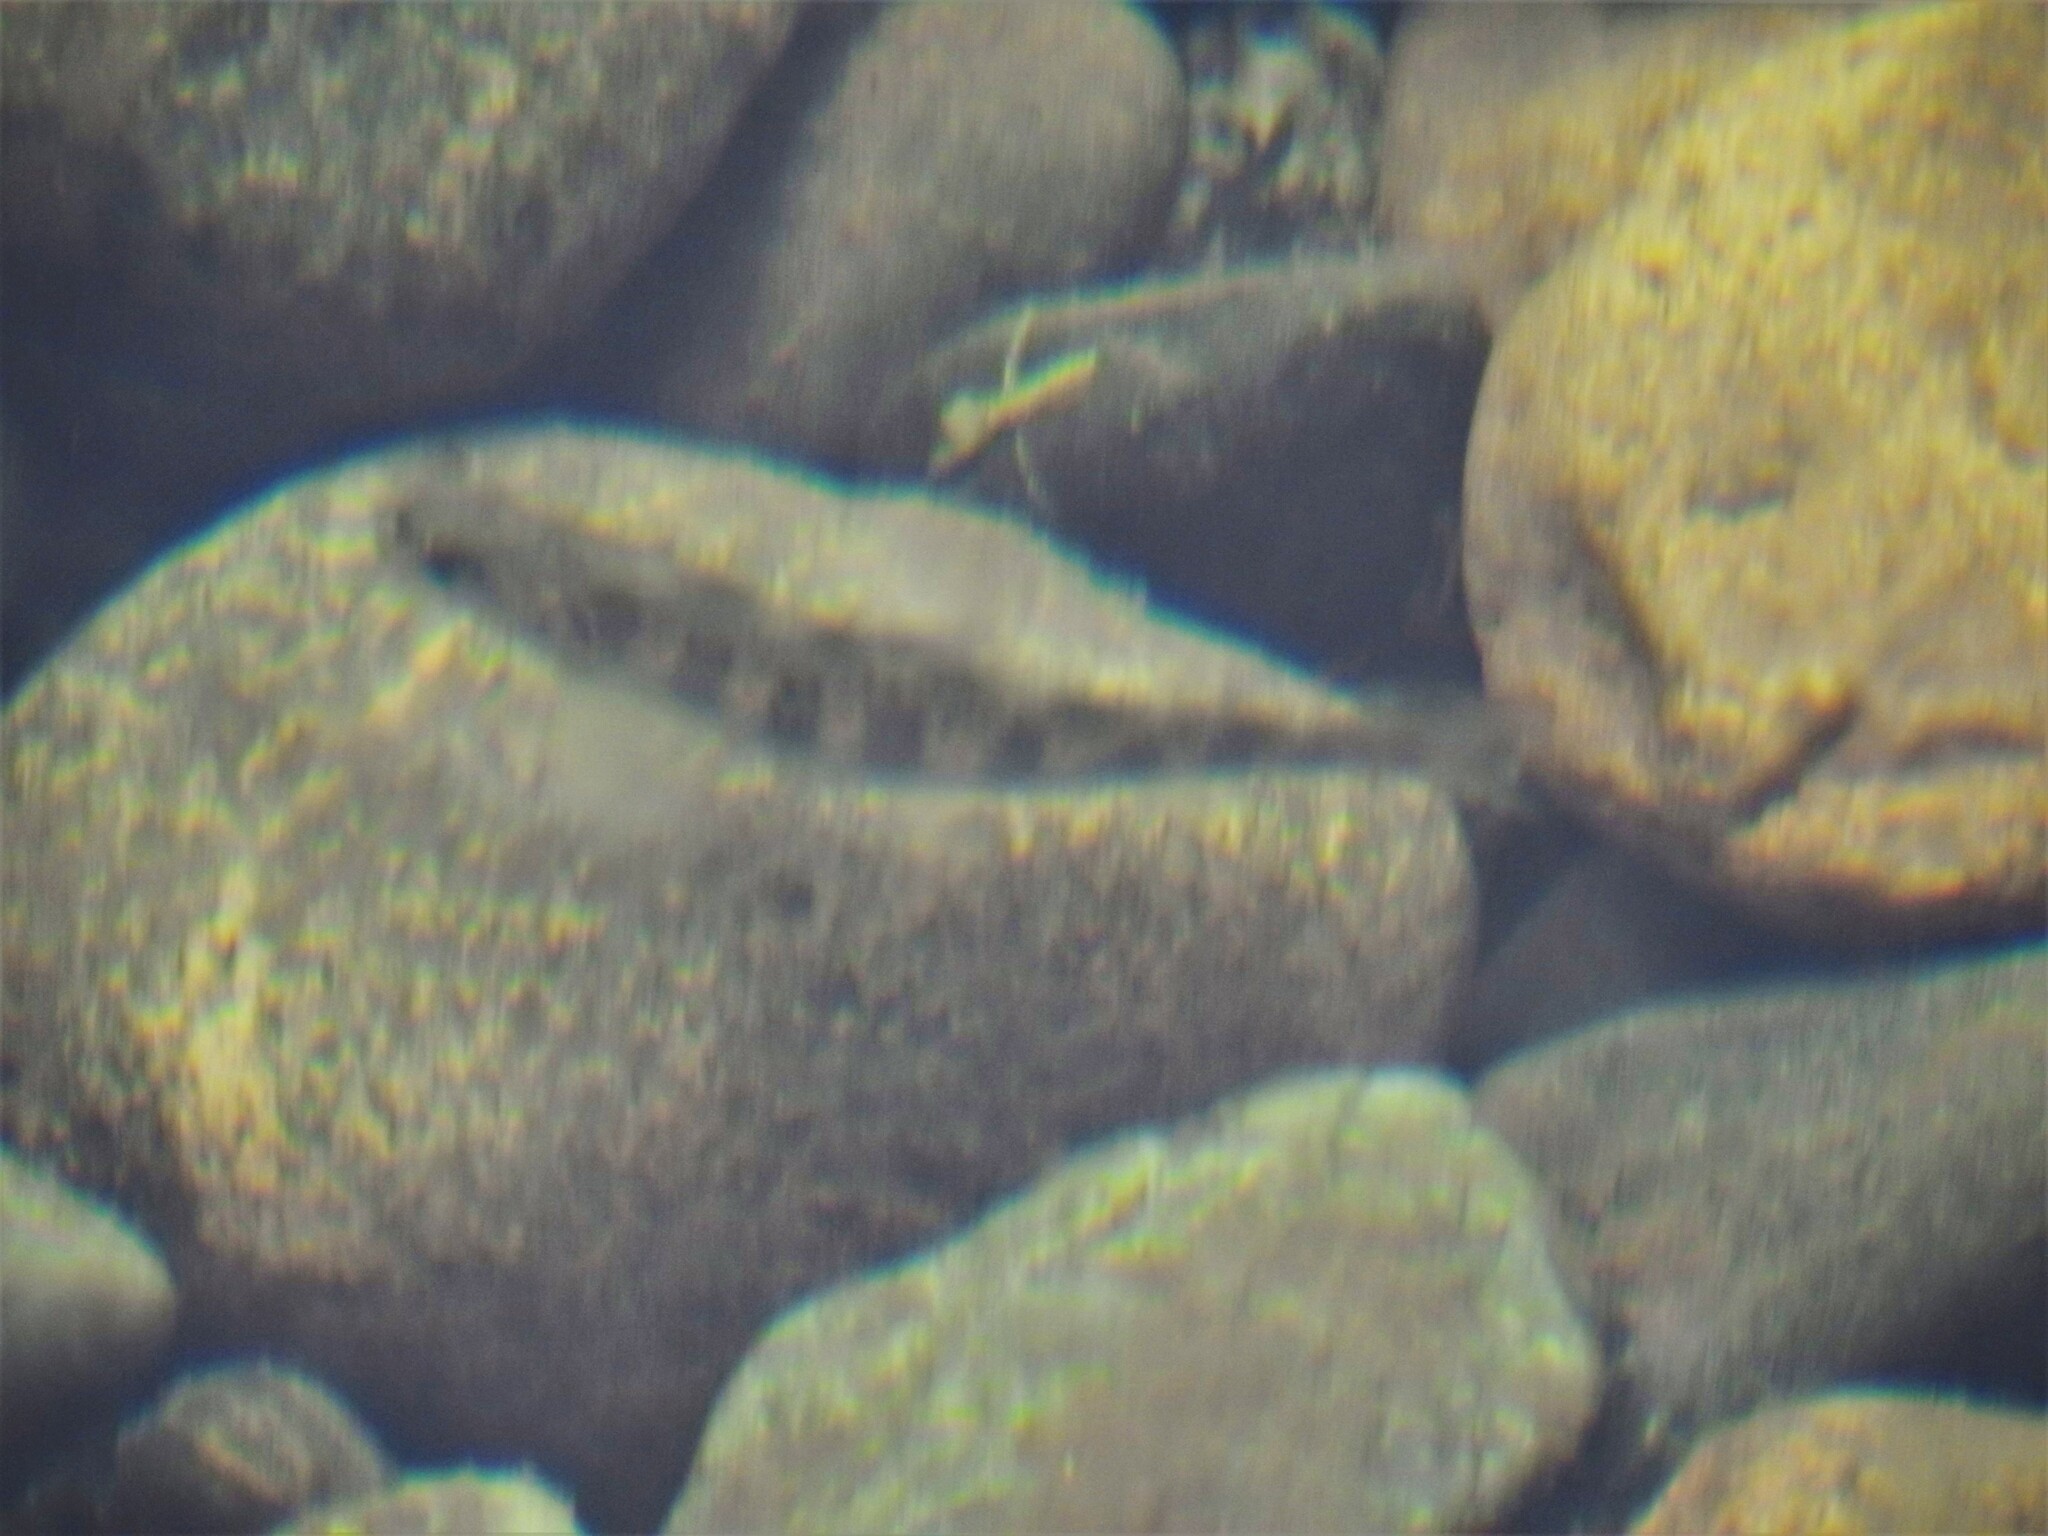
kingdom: Animalia
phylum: Chordata
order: Salmoniformes
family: Salmonidae
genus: Salmo
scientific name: Salmo salar
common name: Atlantic salmon
